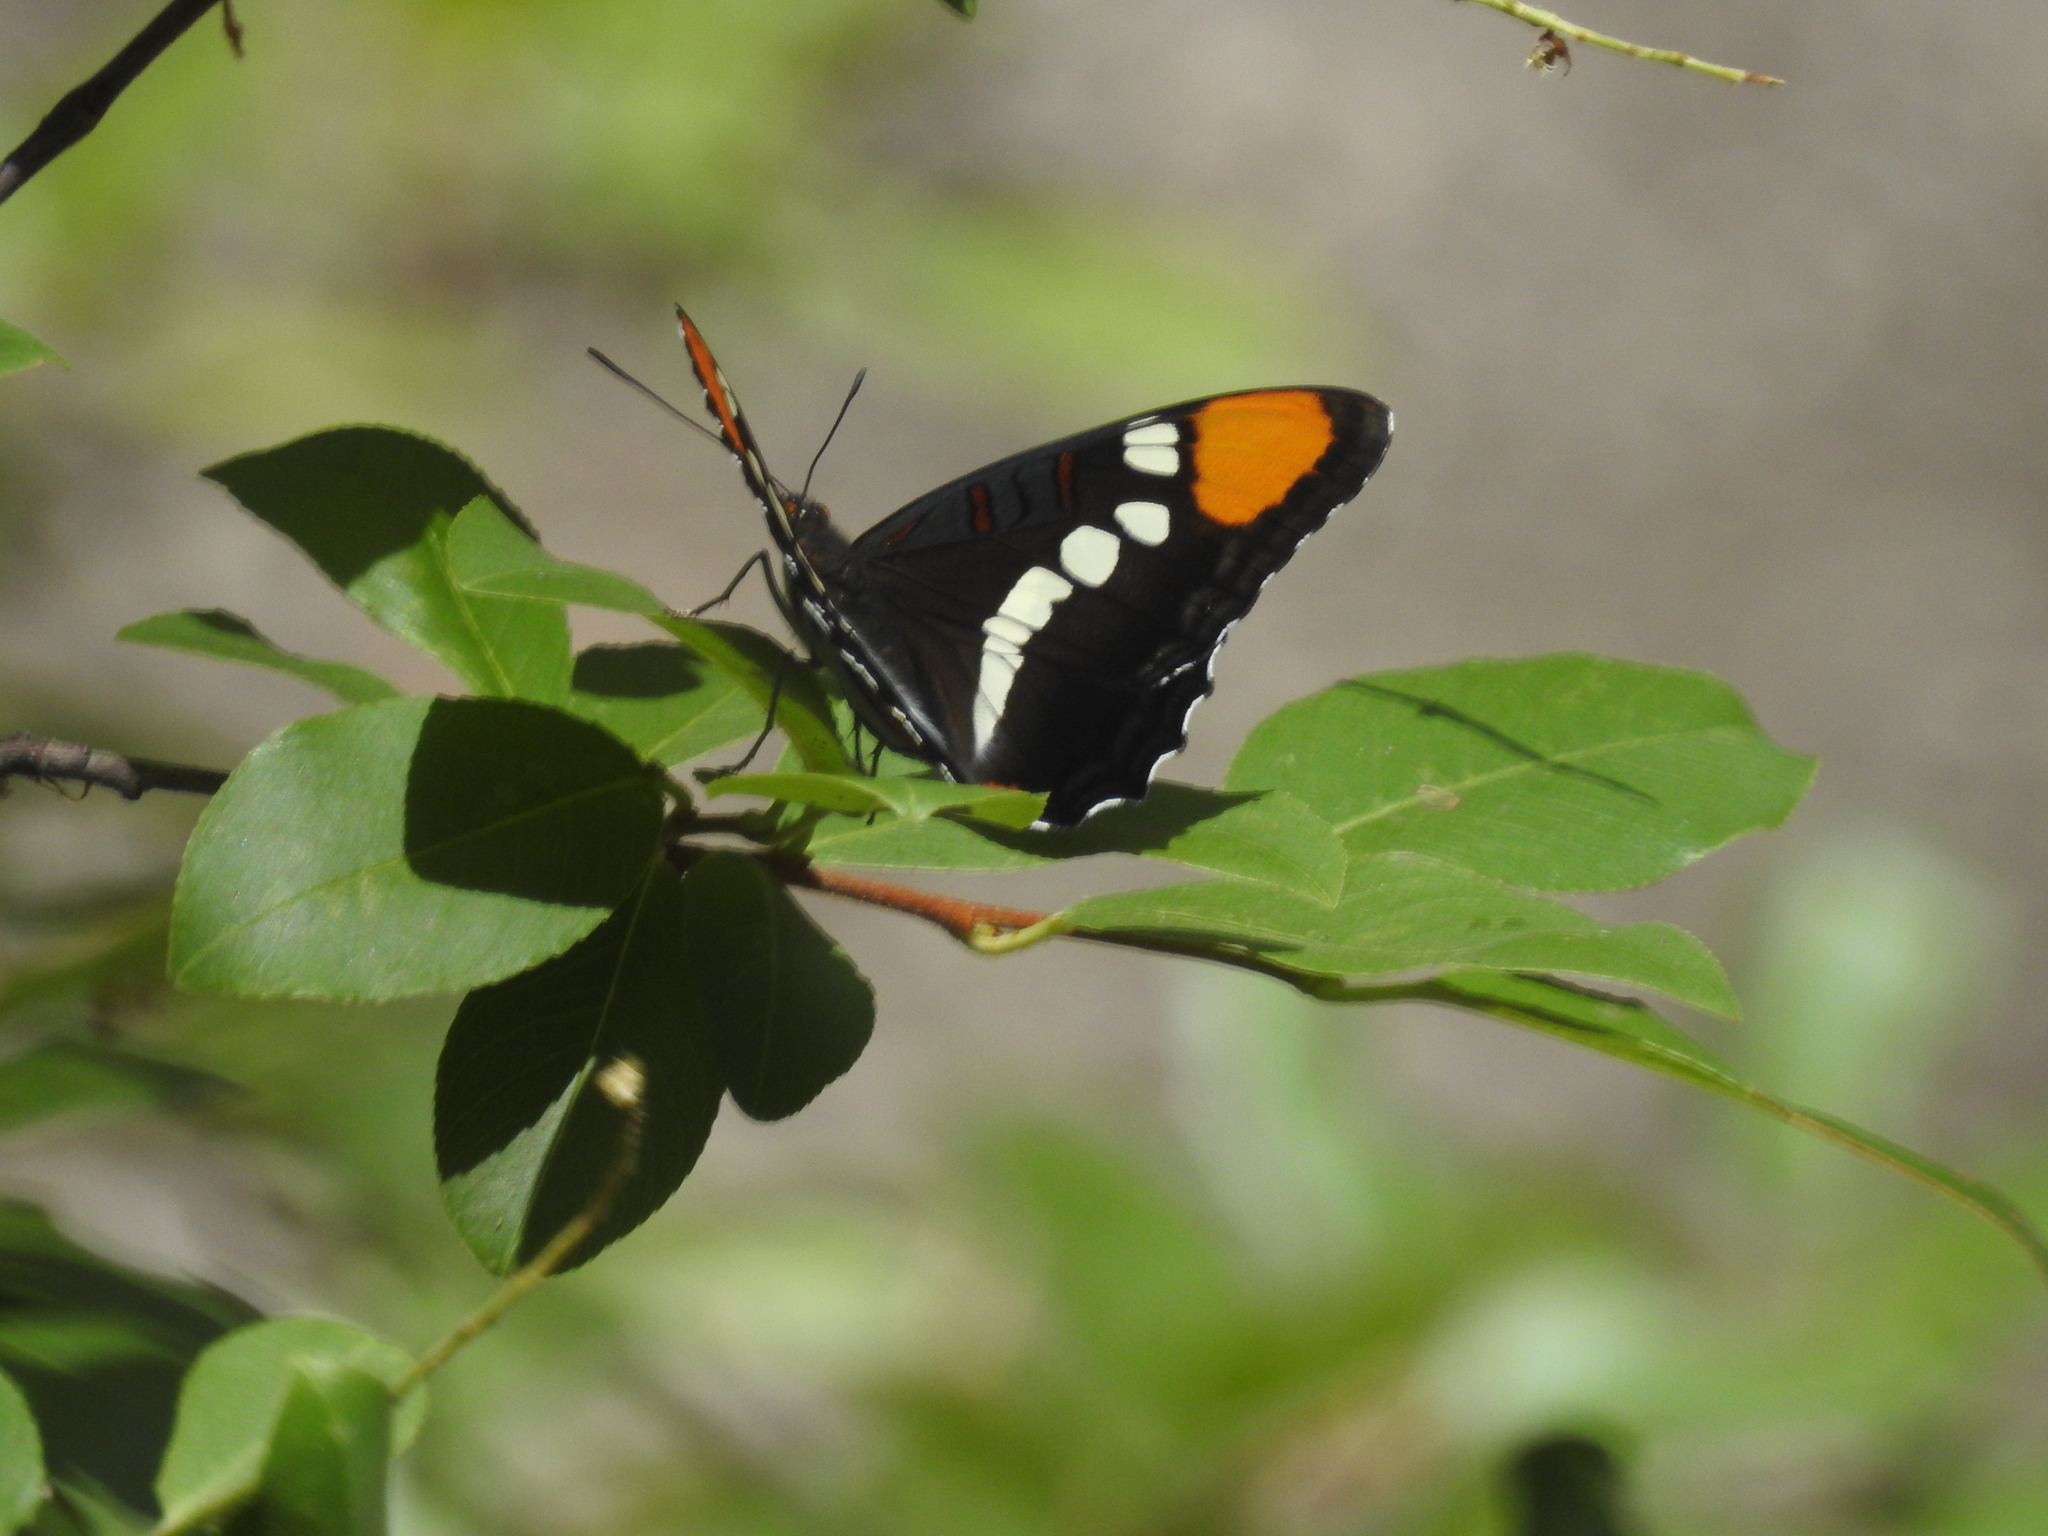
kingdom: Animalia
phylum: Arthropoda
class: Insecta
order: Lepidoptera
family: Nymphalidae
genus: Limenitis
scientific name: Limenitis bredowii
